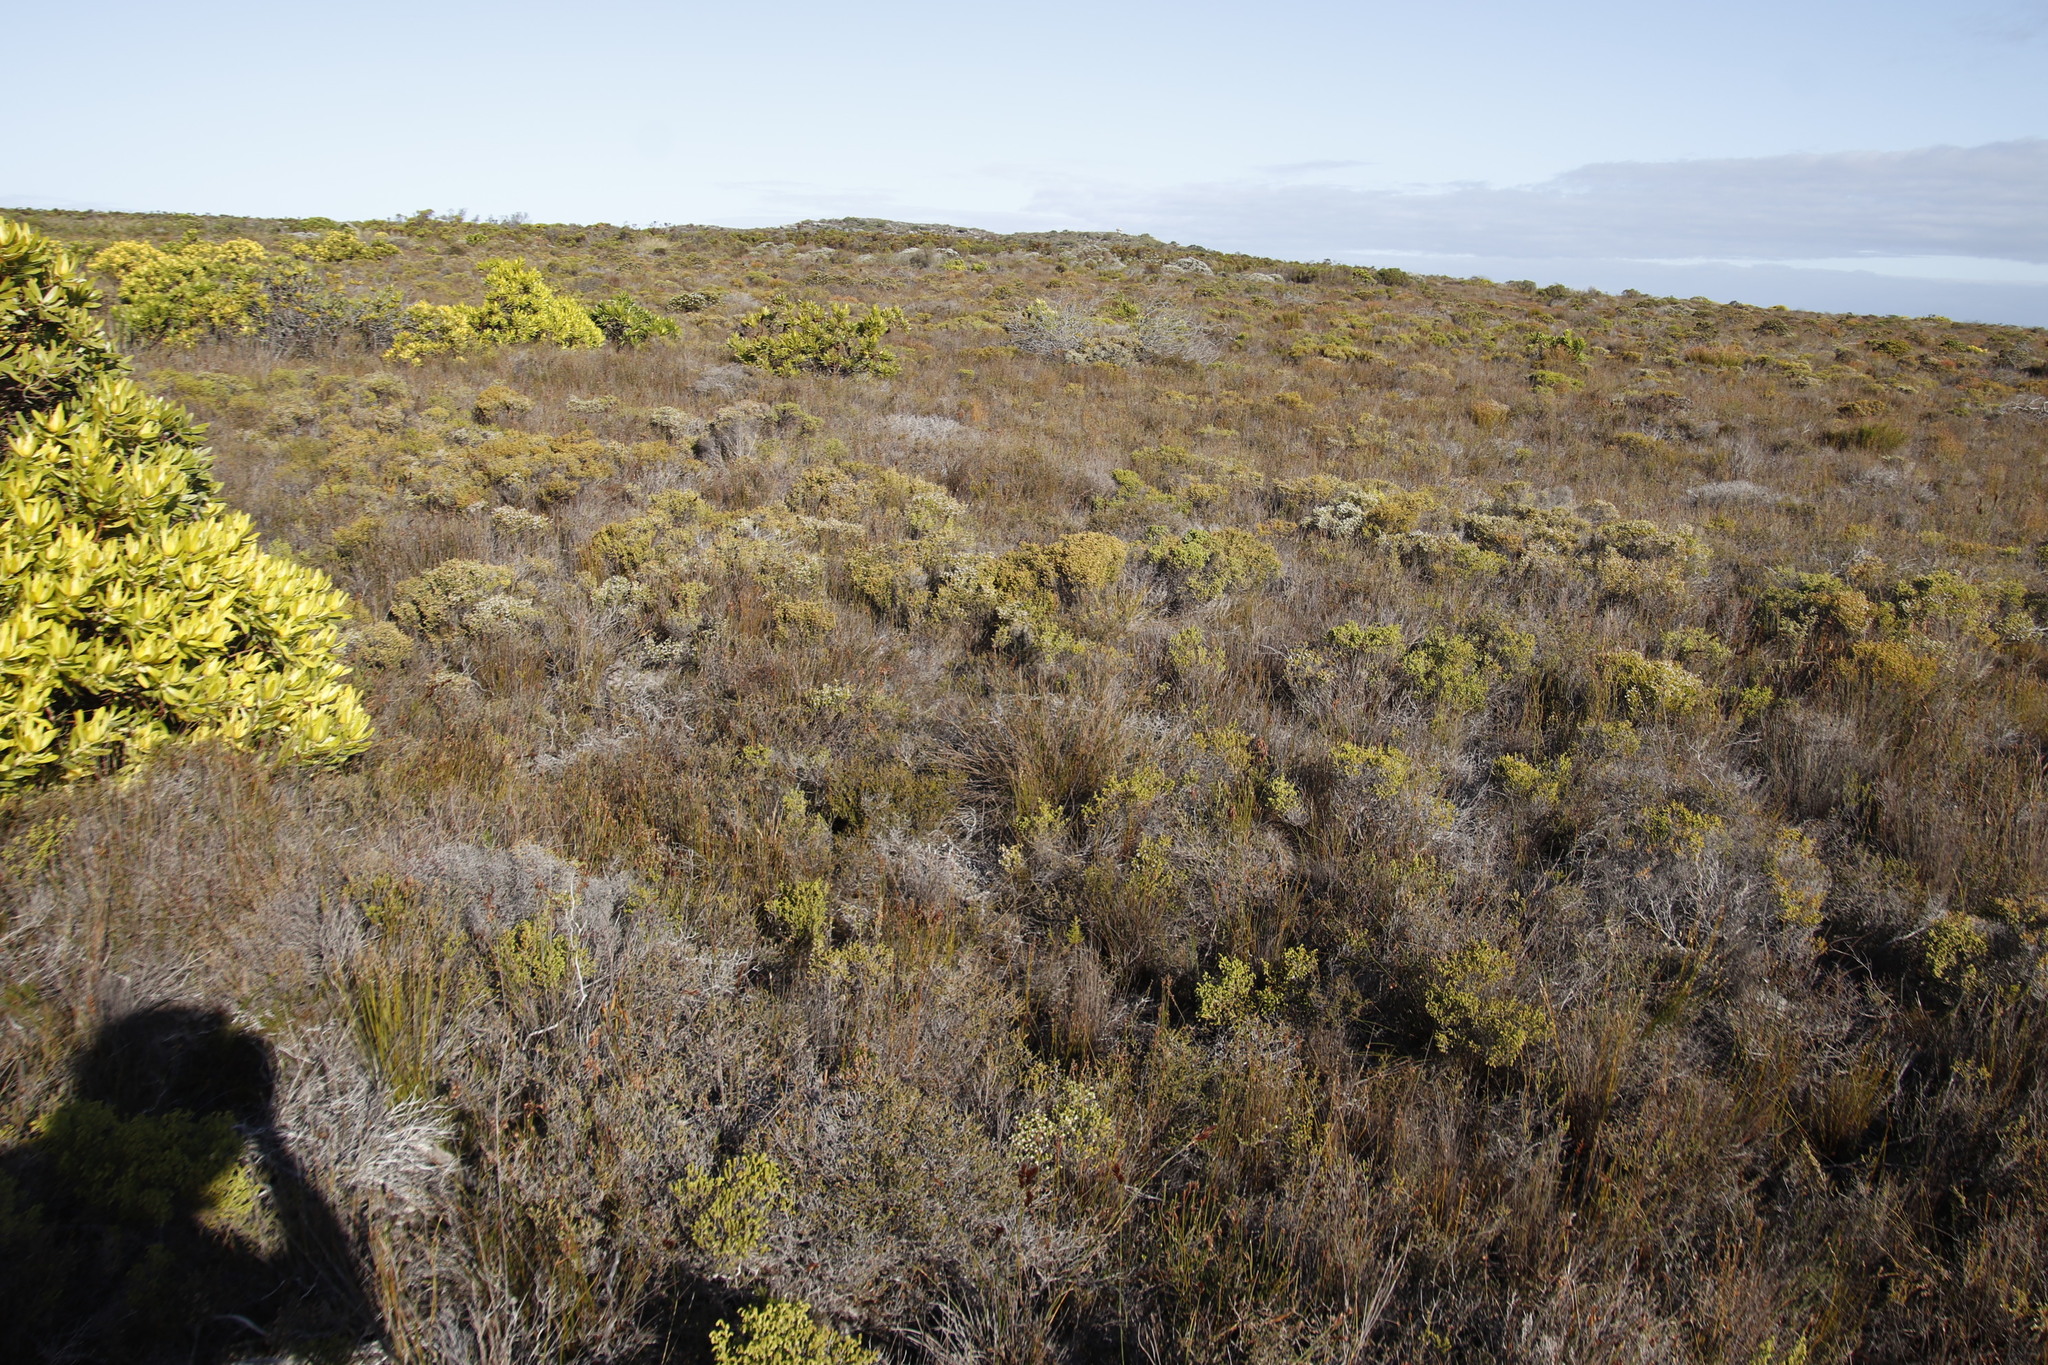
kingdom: Plantae
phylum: Tracheophyta
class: Magnoliopsida
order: Ericales
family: Ericaceae
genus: Erica
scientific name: Erica labialis
